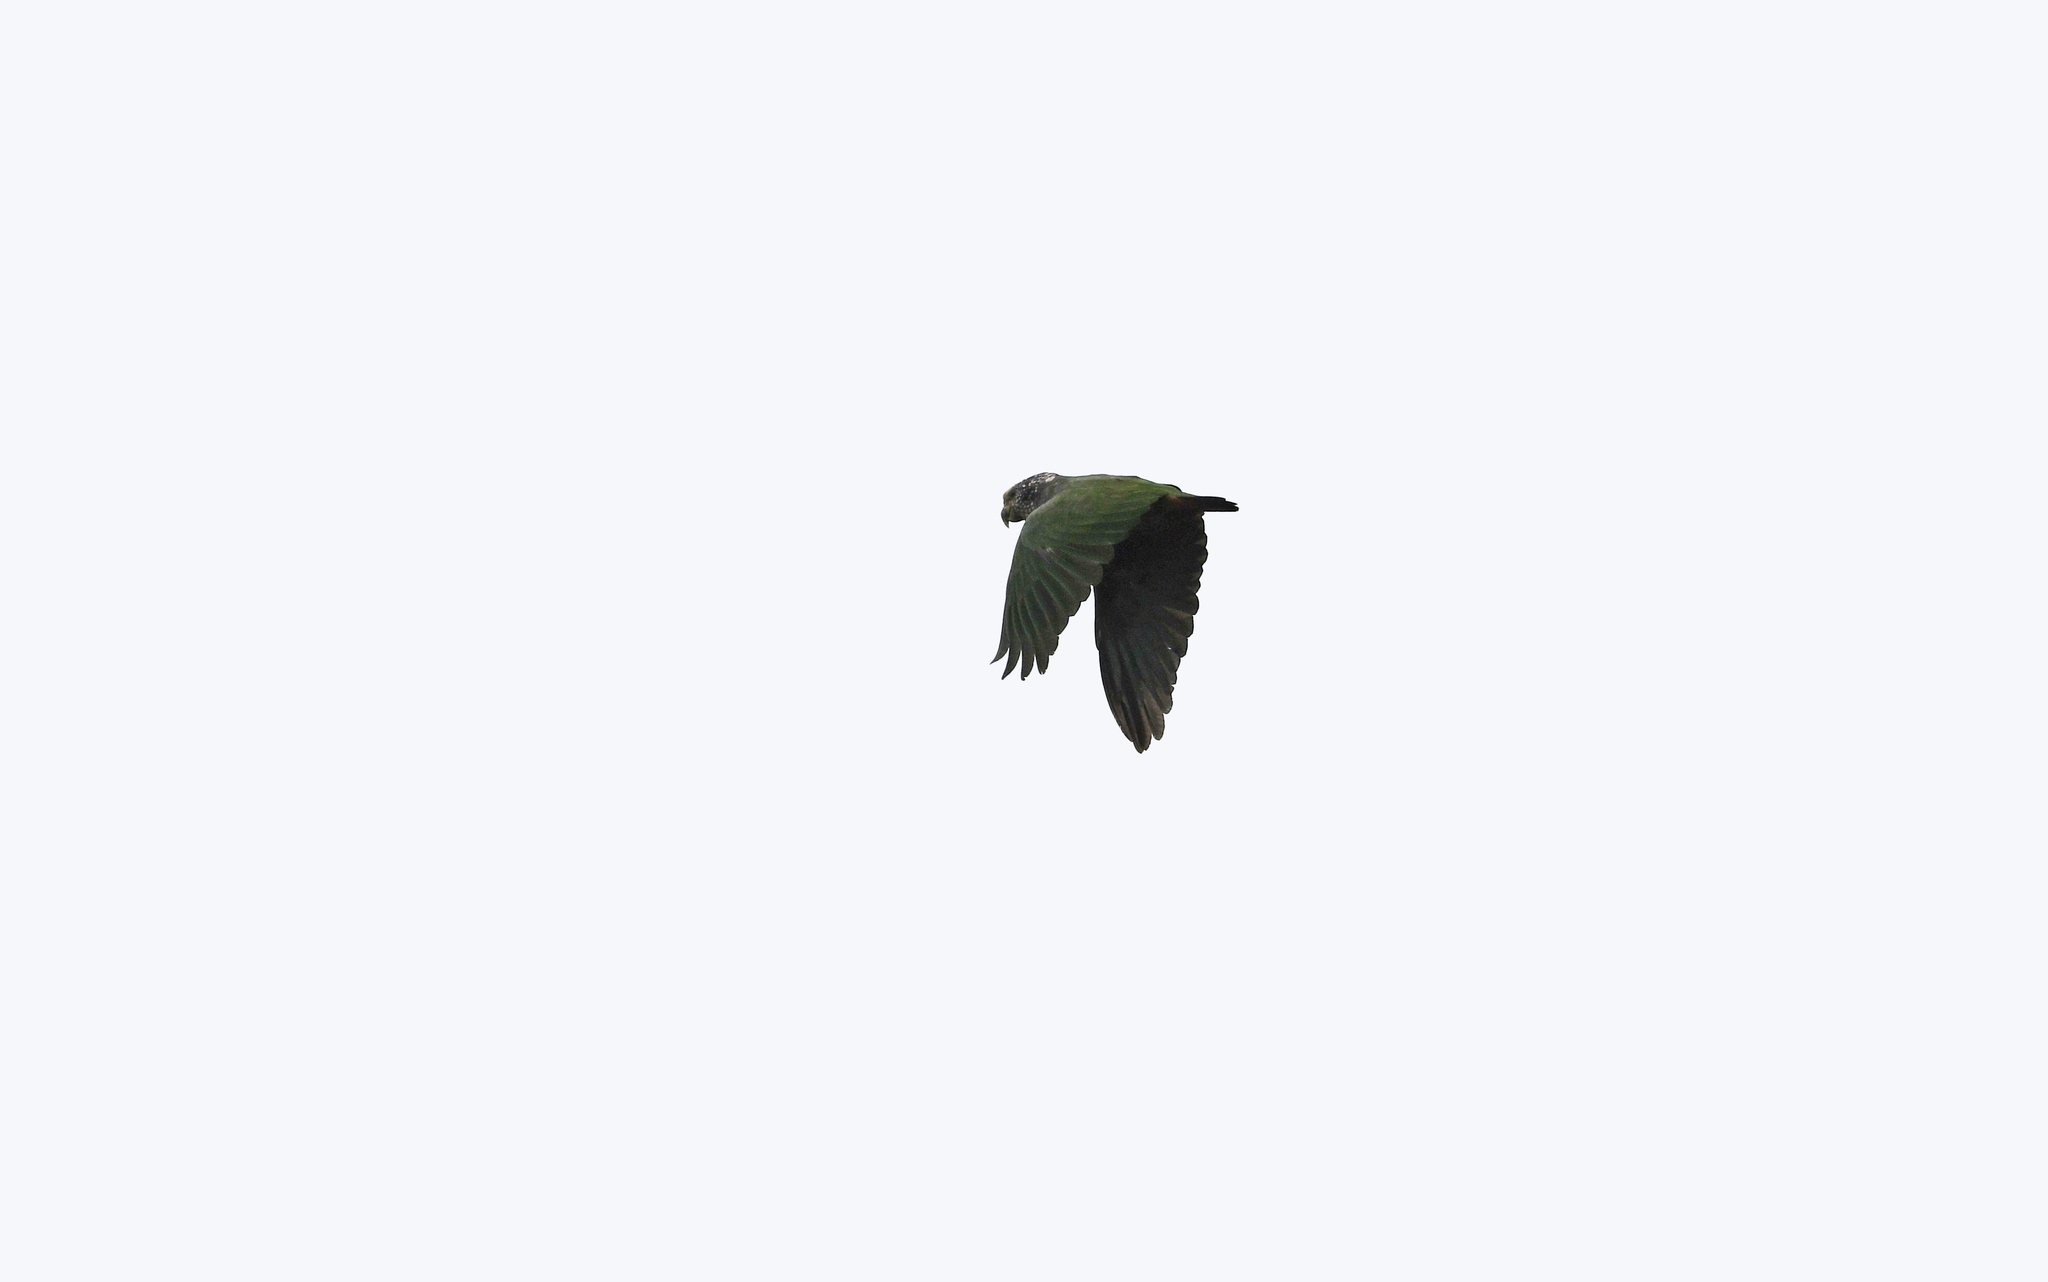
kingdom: Animalia
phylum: Chordata
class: Aves
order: Psittaciformes
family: Psittacidae
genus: Pionus
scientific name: Pionus tumultuosus
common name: Plum-crowned parrot
